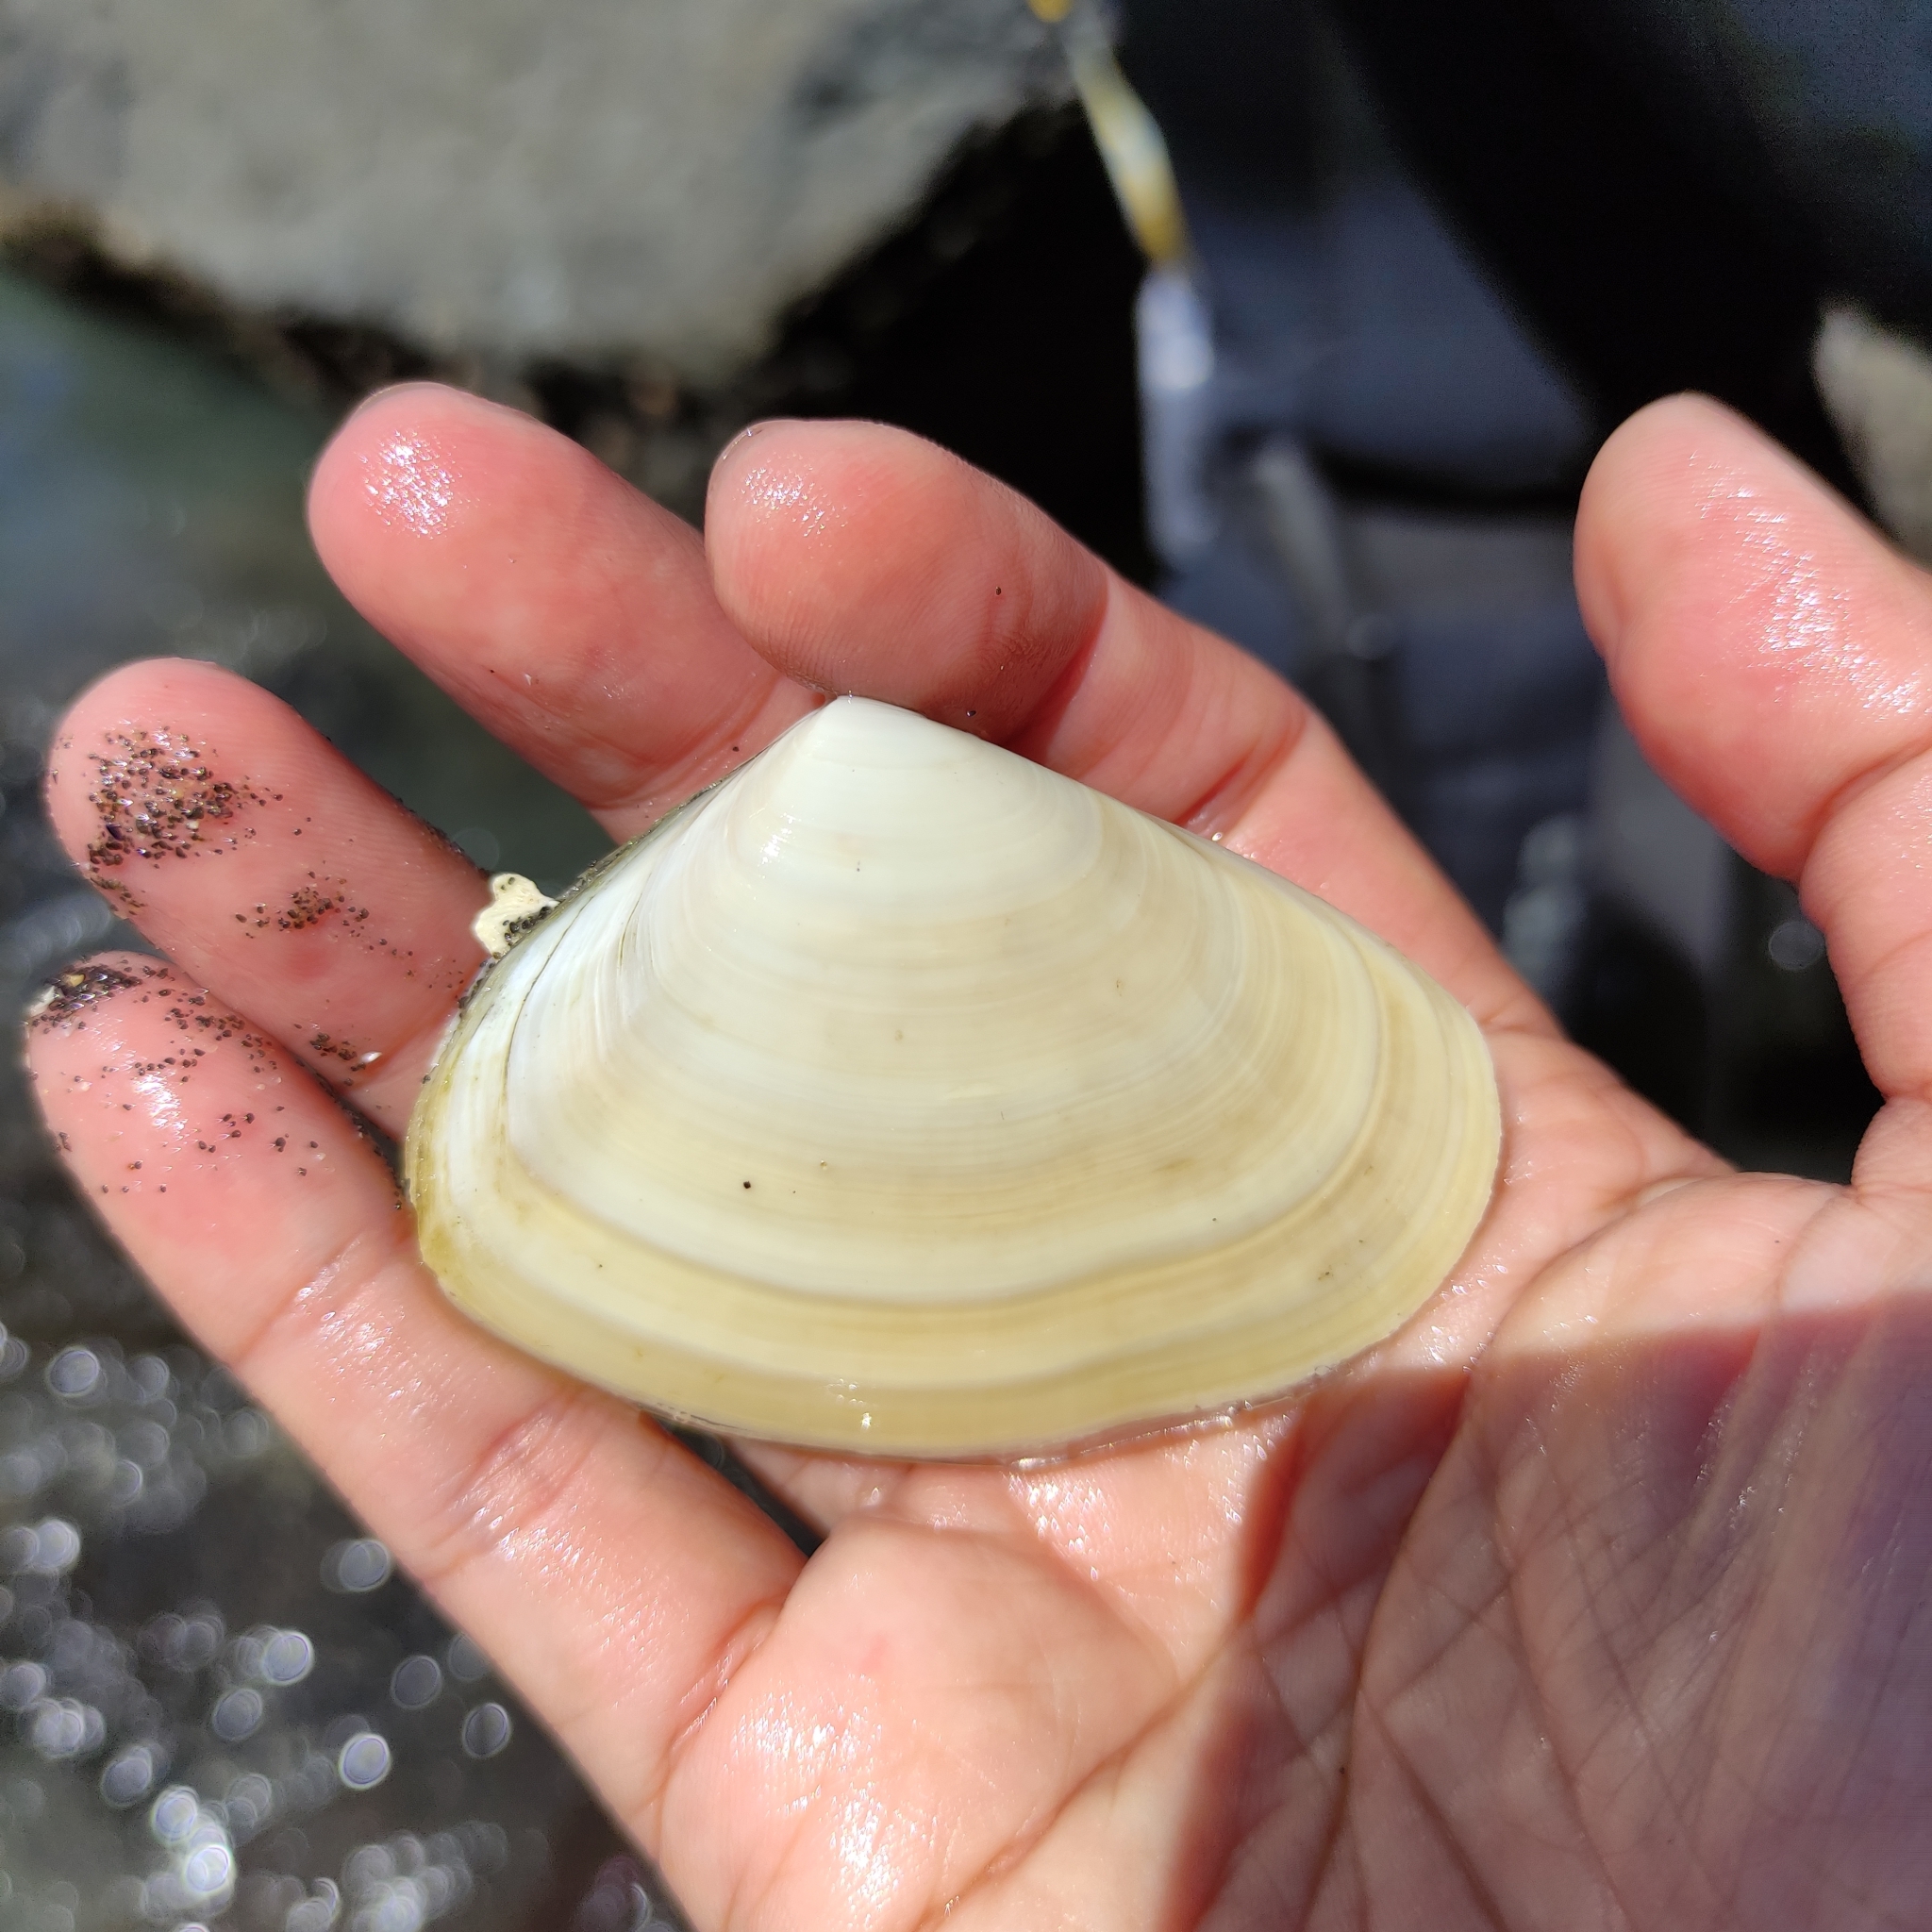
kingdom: Animalia
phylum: Mollusca
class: Bivalvia
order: Venerida
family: Mesodesmatidae
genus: Paphies
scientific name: Paphies donacina
